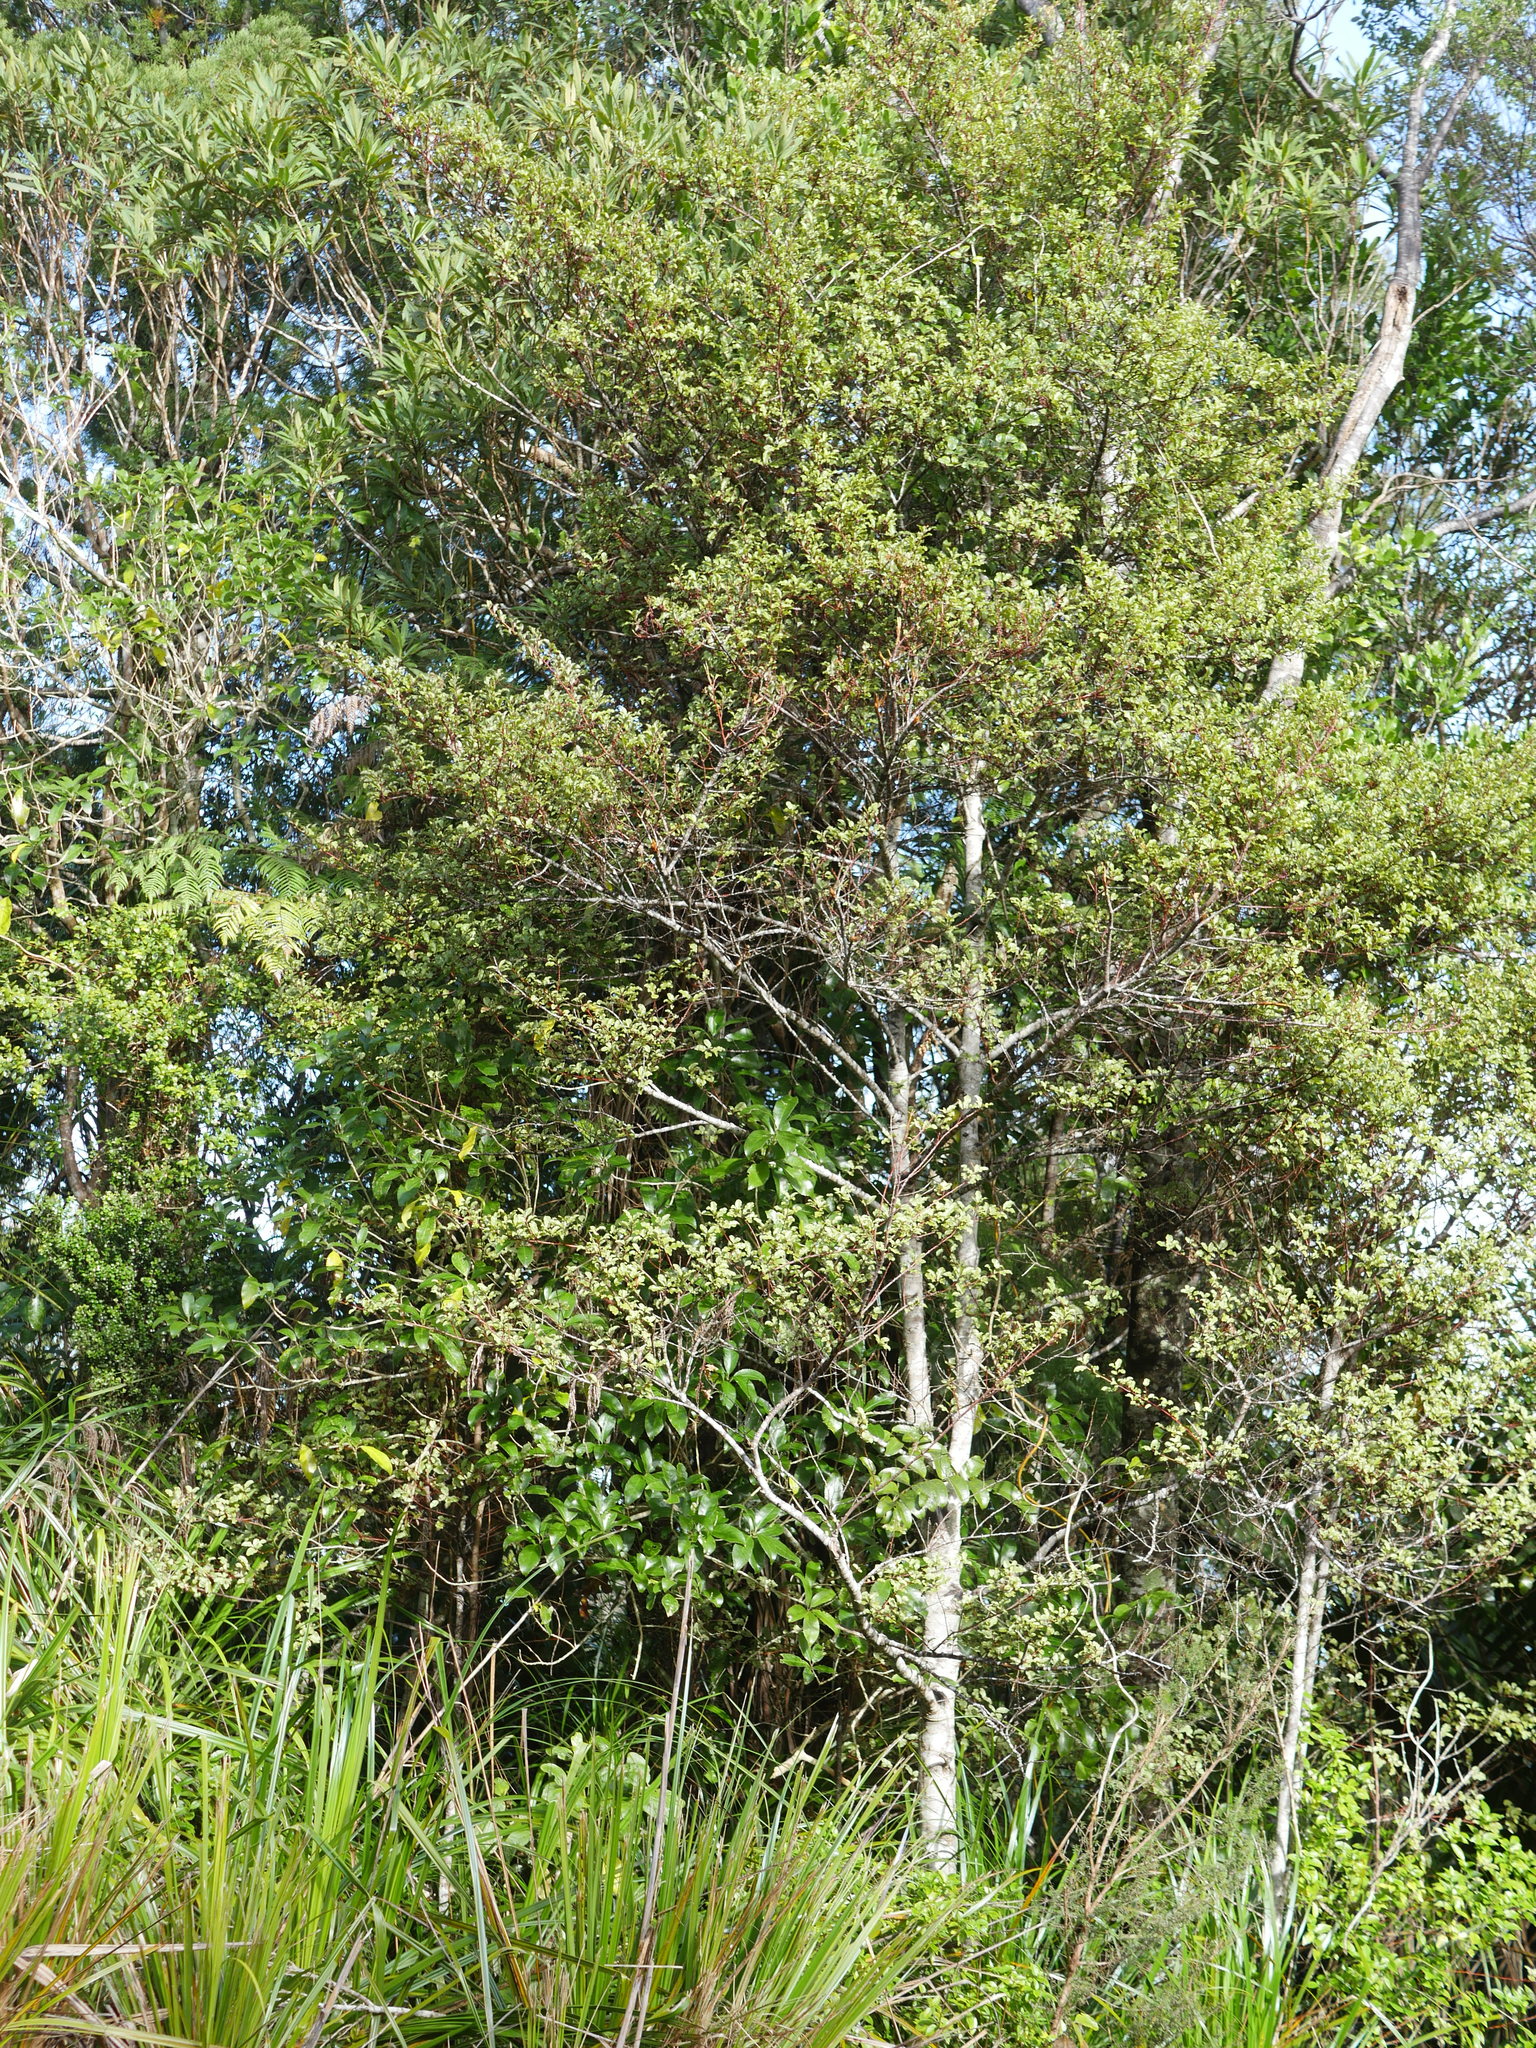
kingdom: Plantae
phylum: Tracheophyta
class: Magnoliopsida
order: Ericales
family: Primulaceae
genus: Myrsine
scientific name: Myrsine australis
